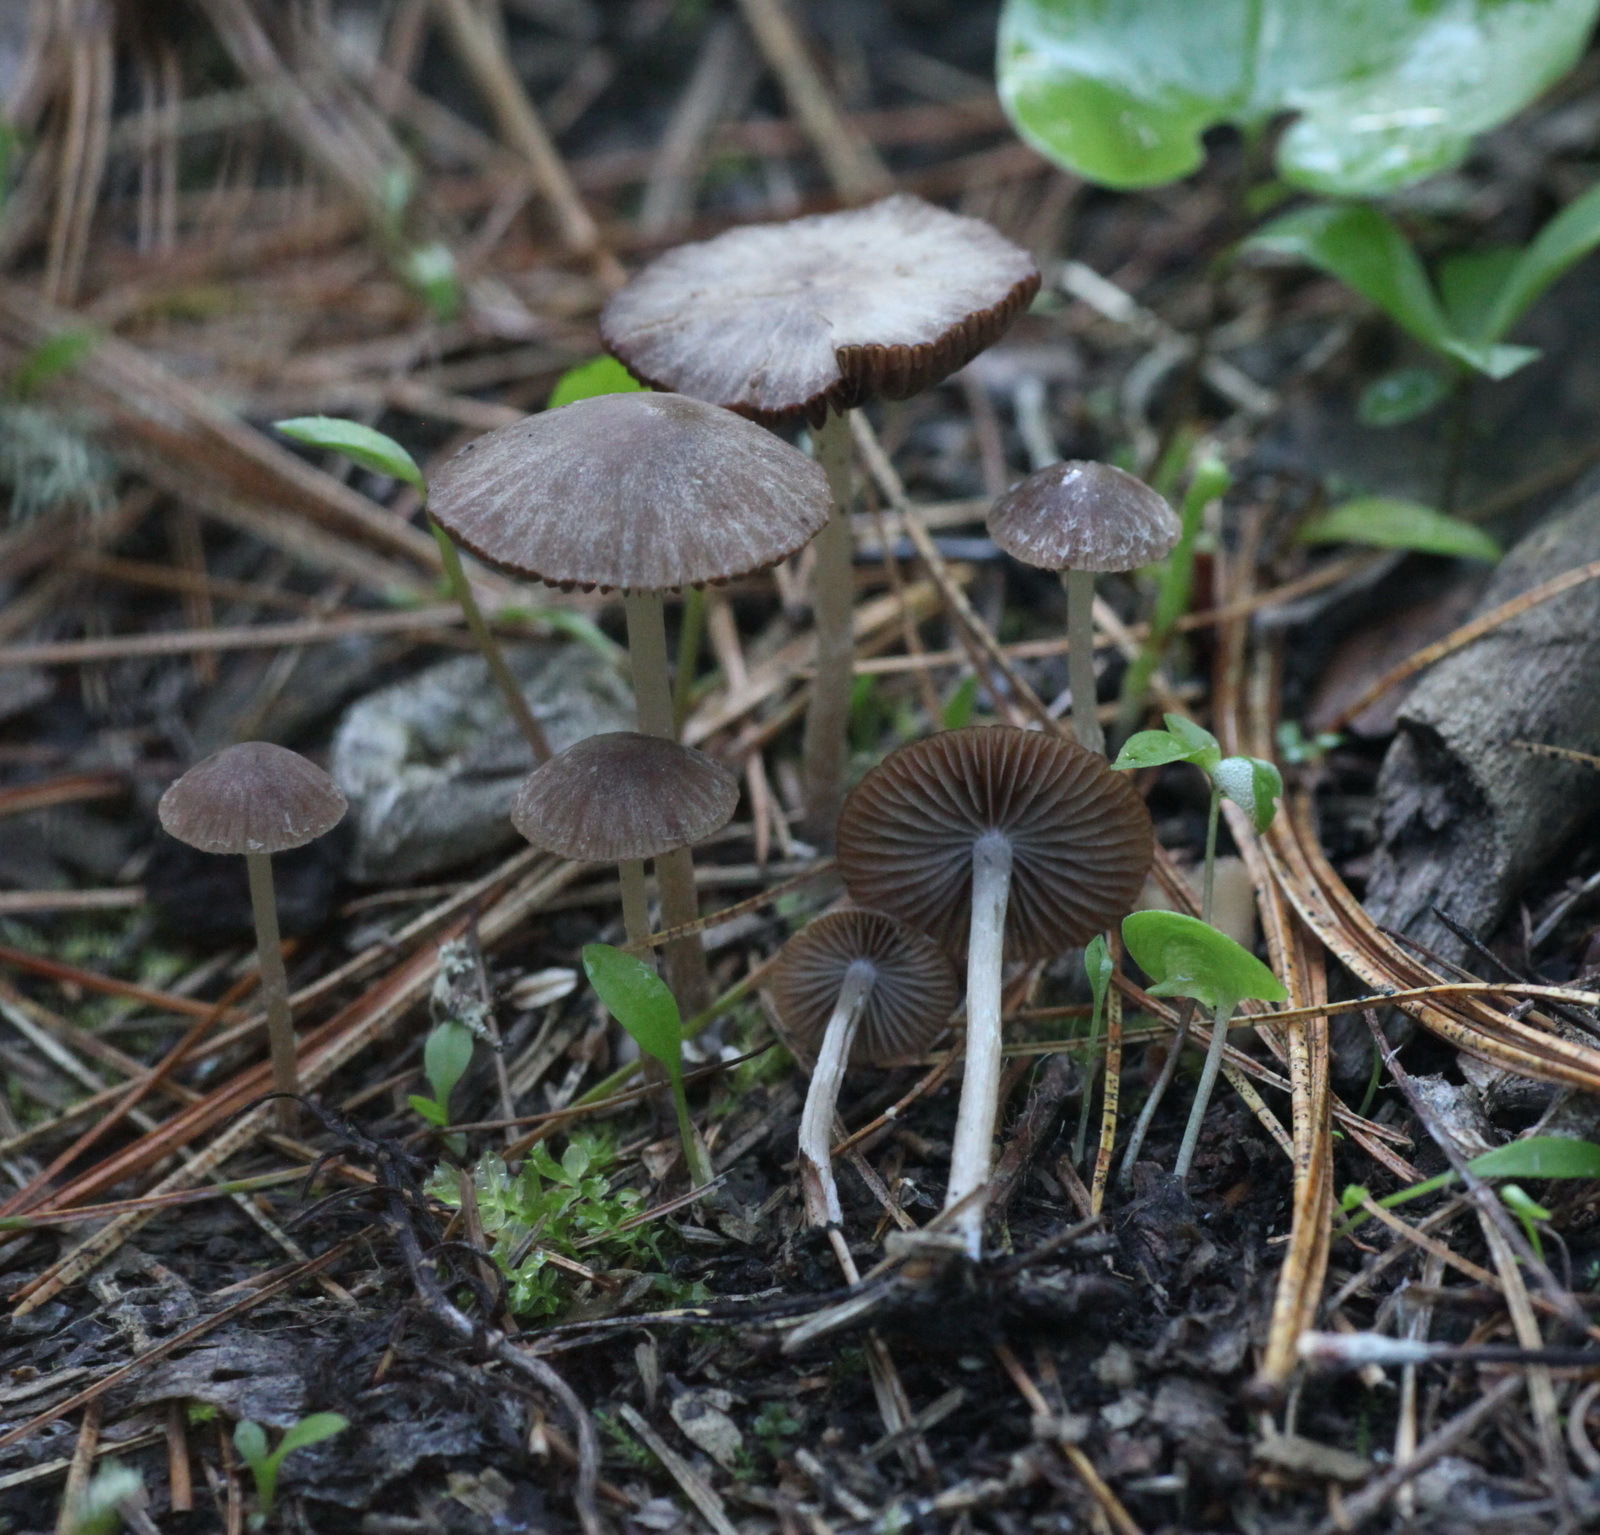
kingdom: Fungi
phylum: Basidiomycota
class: Agaricomycetes
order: Agaricales
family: Psathyrellaceae
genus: Psathyrella
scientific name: Psathyrella panaeoloides
